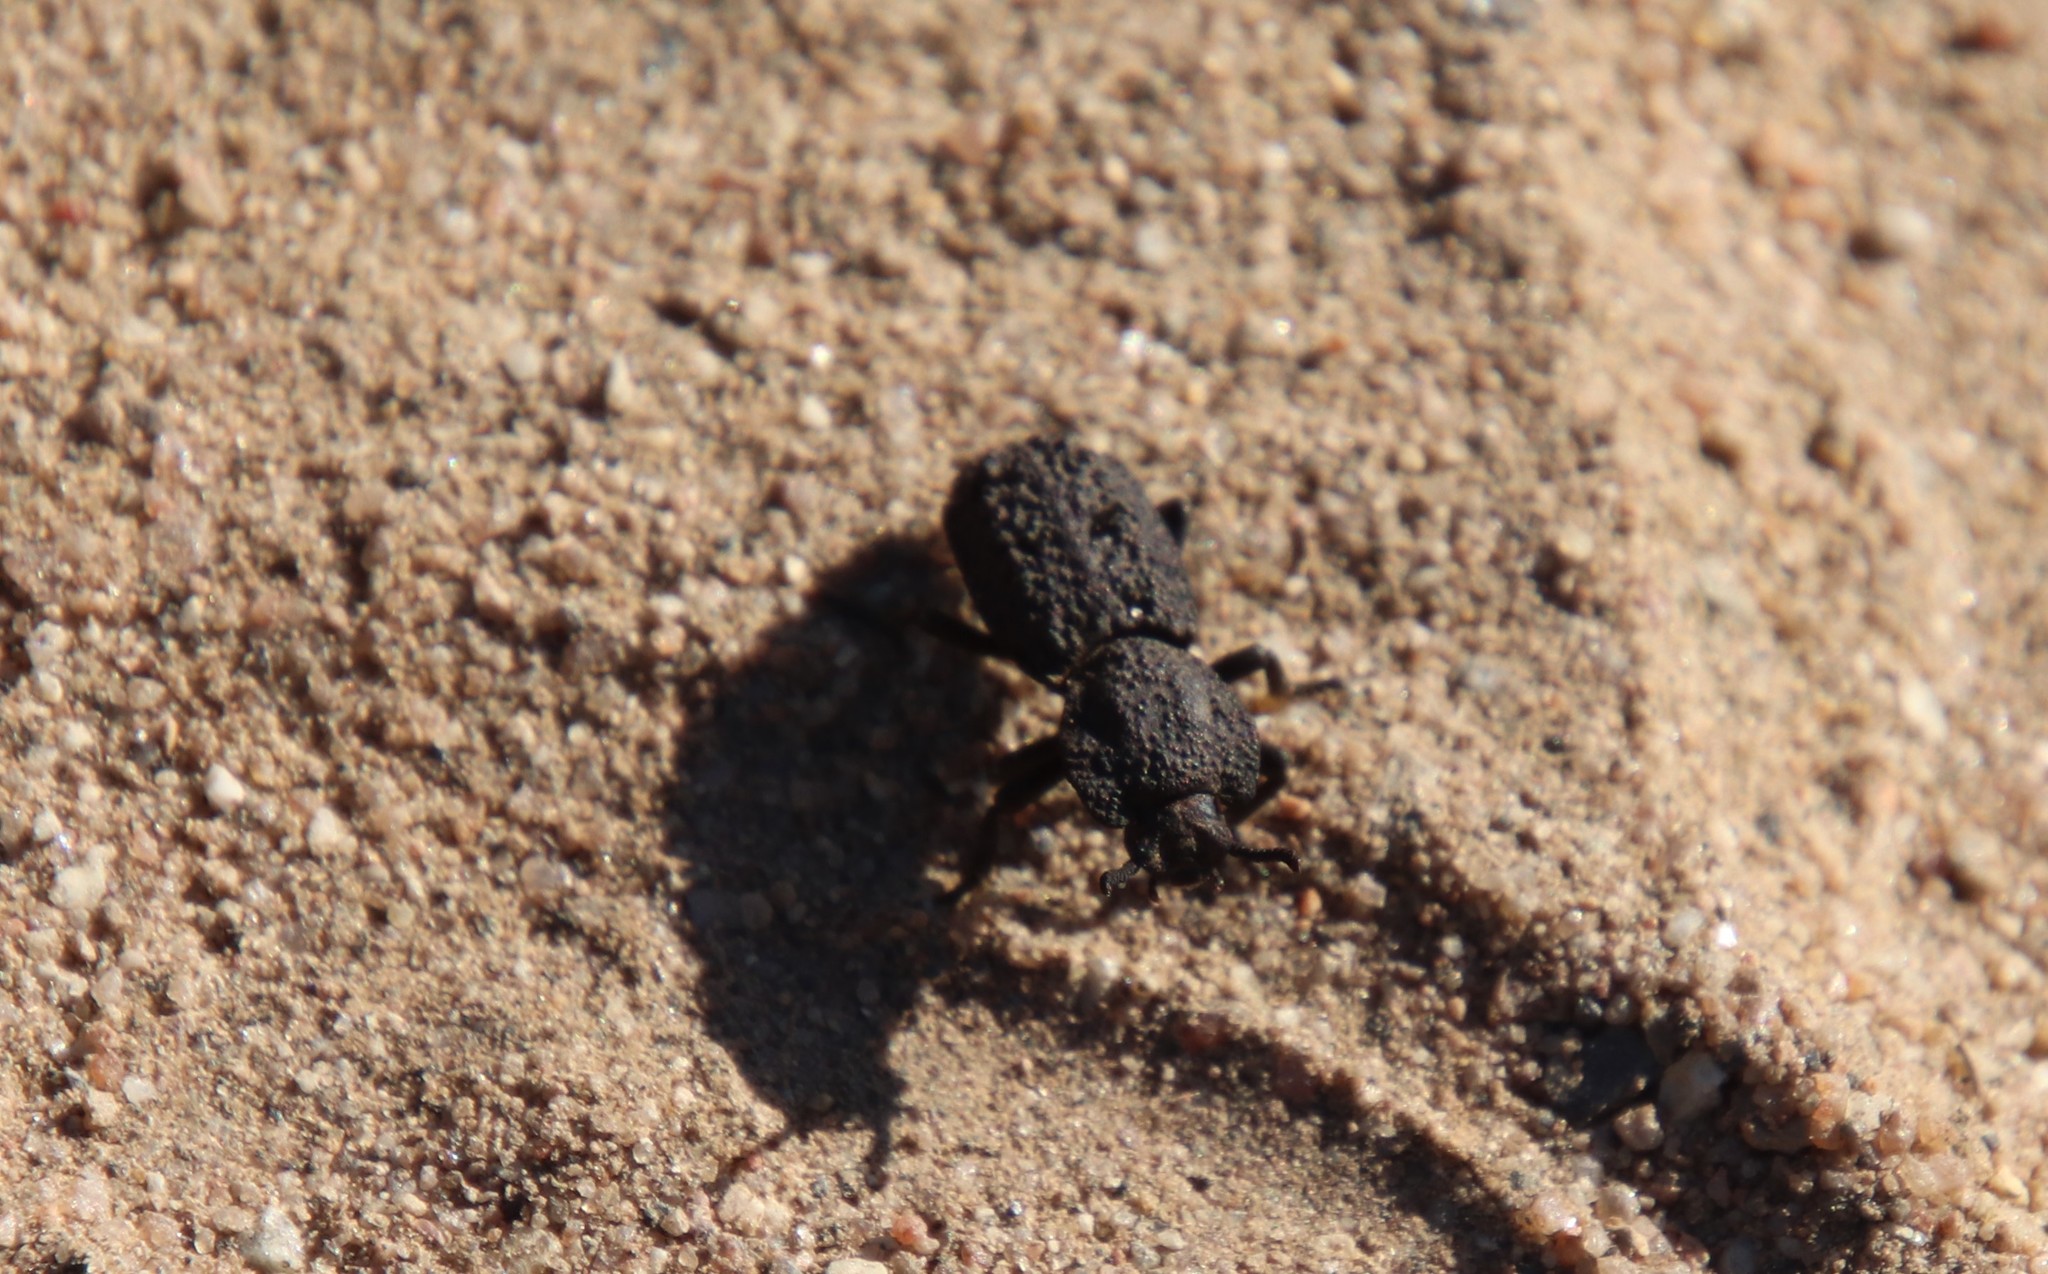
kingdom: Animalia
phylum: Arthropoda
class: Insecta
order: Coleoptera
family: Zopheridae
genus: Phloeodes
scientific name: Phloeodes diabolicus
